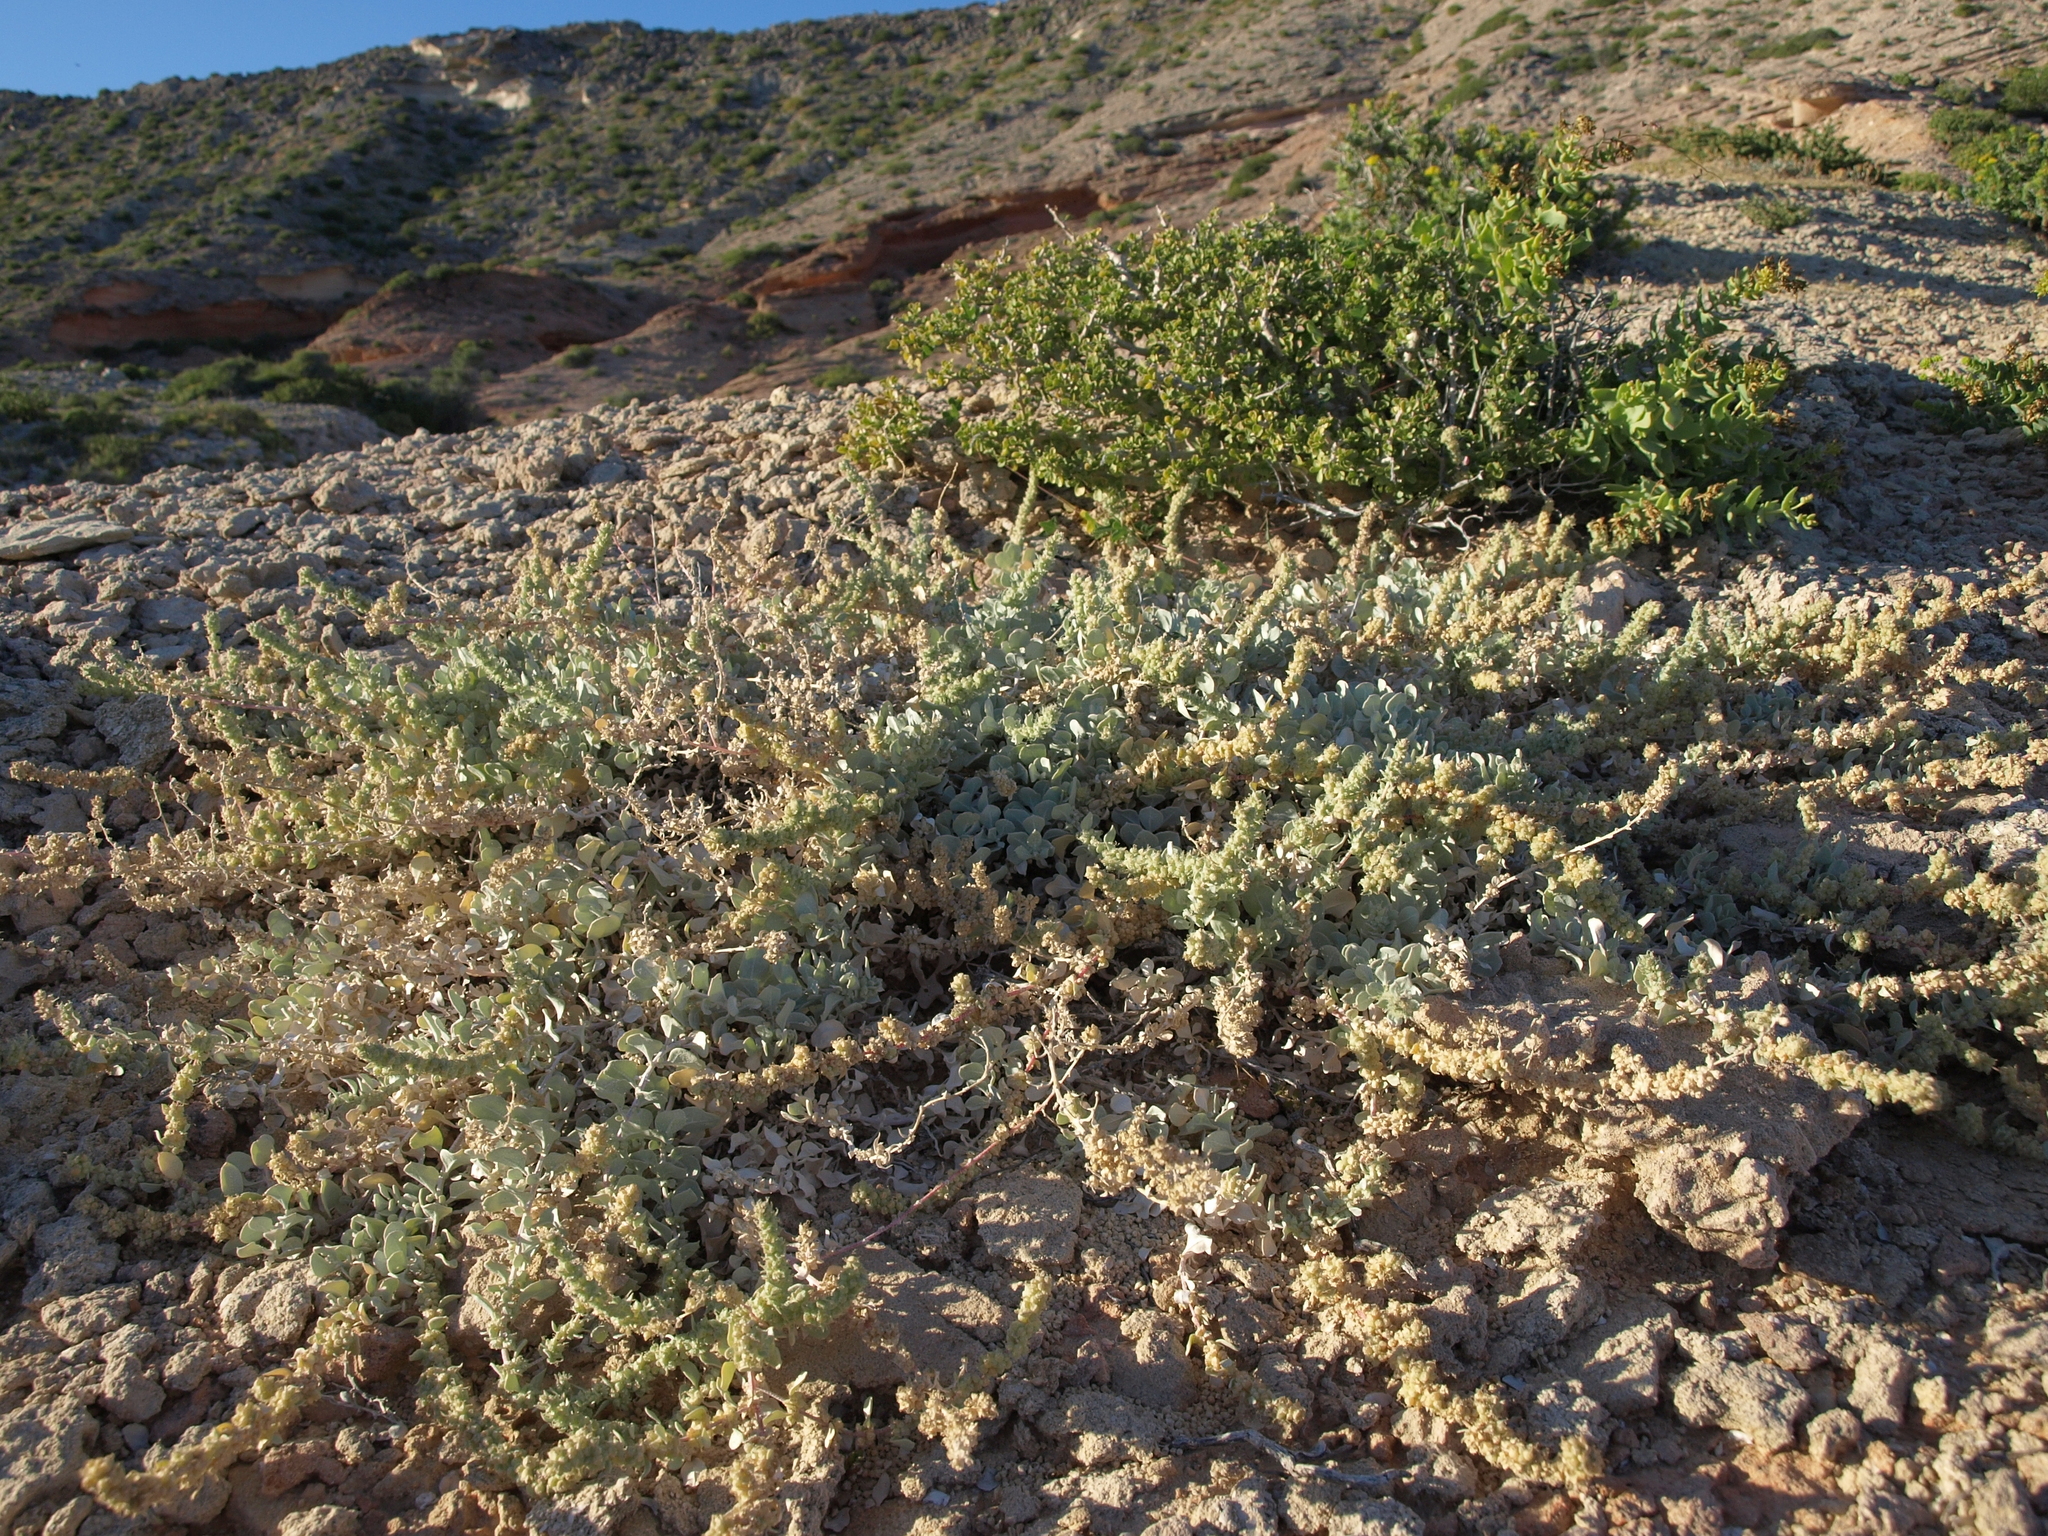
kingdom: Plantae
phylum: Tracheophyta
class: Magnoliopsida
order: Caryophyllales
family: Amaranthaceae
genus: Atriplex
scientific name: Atriplex barclayana
